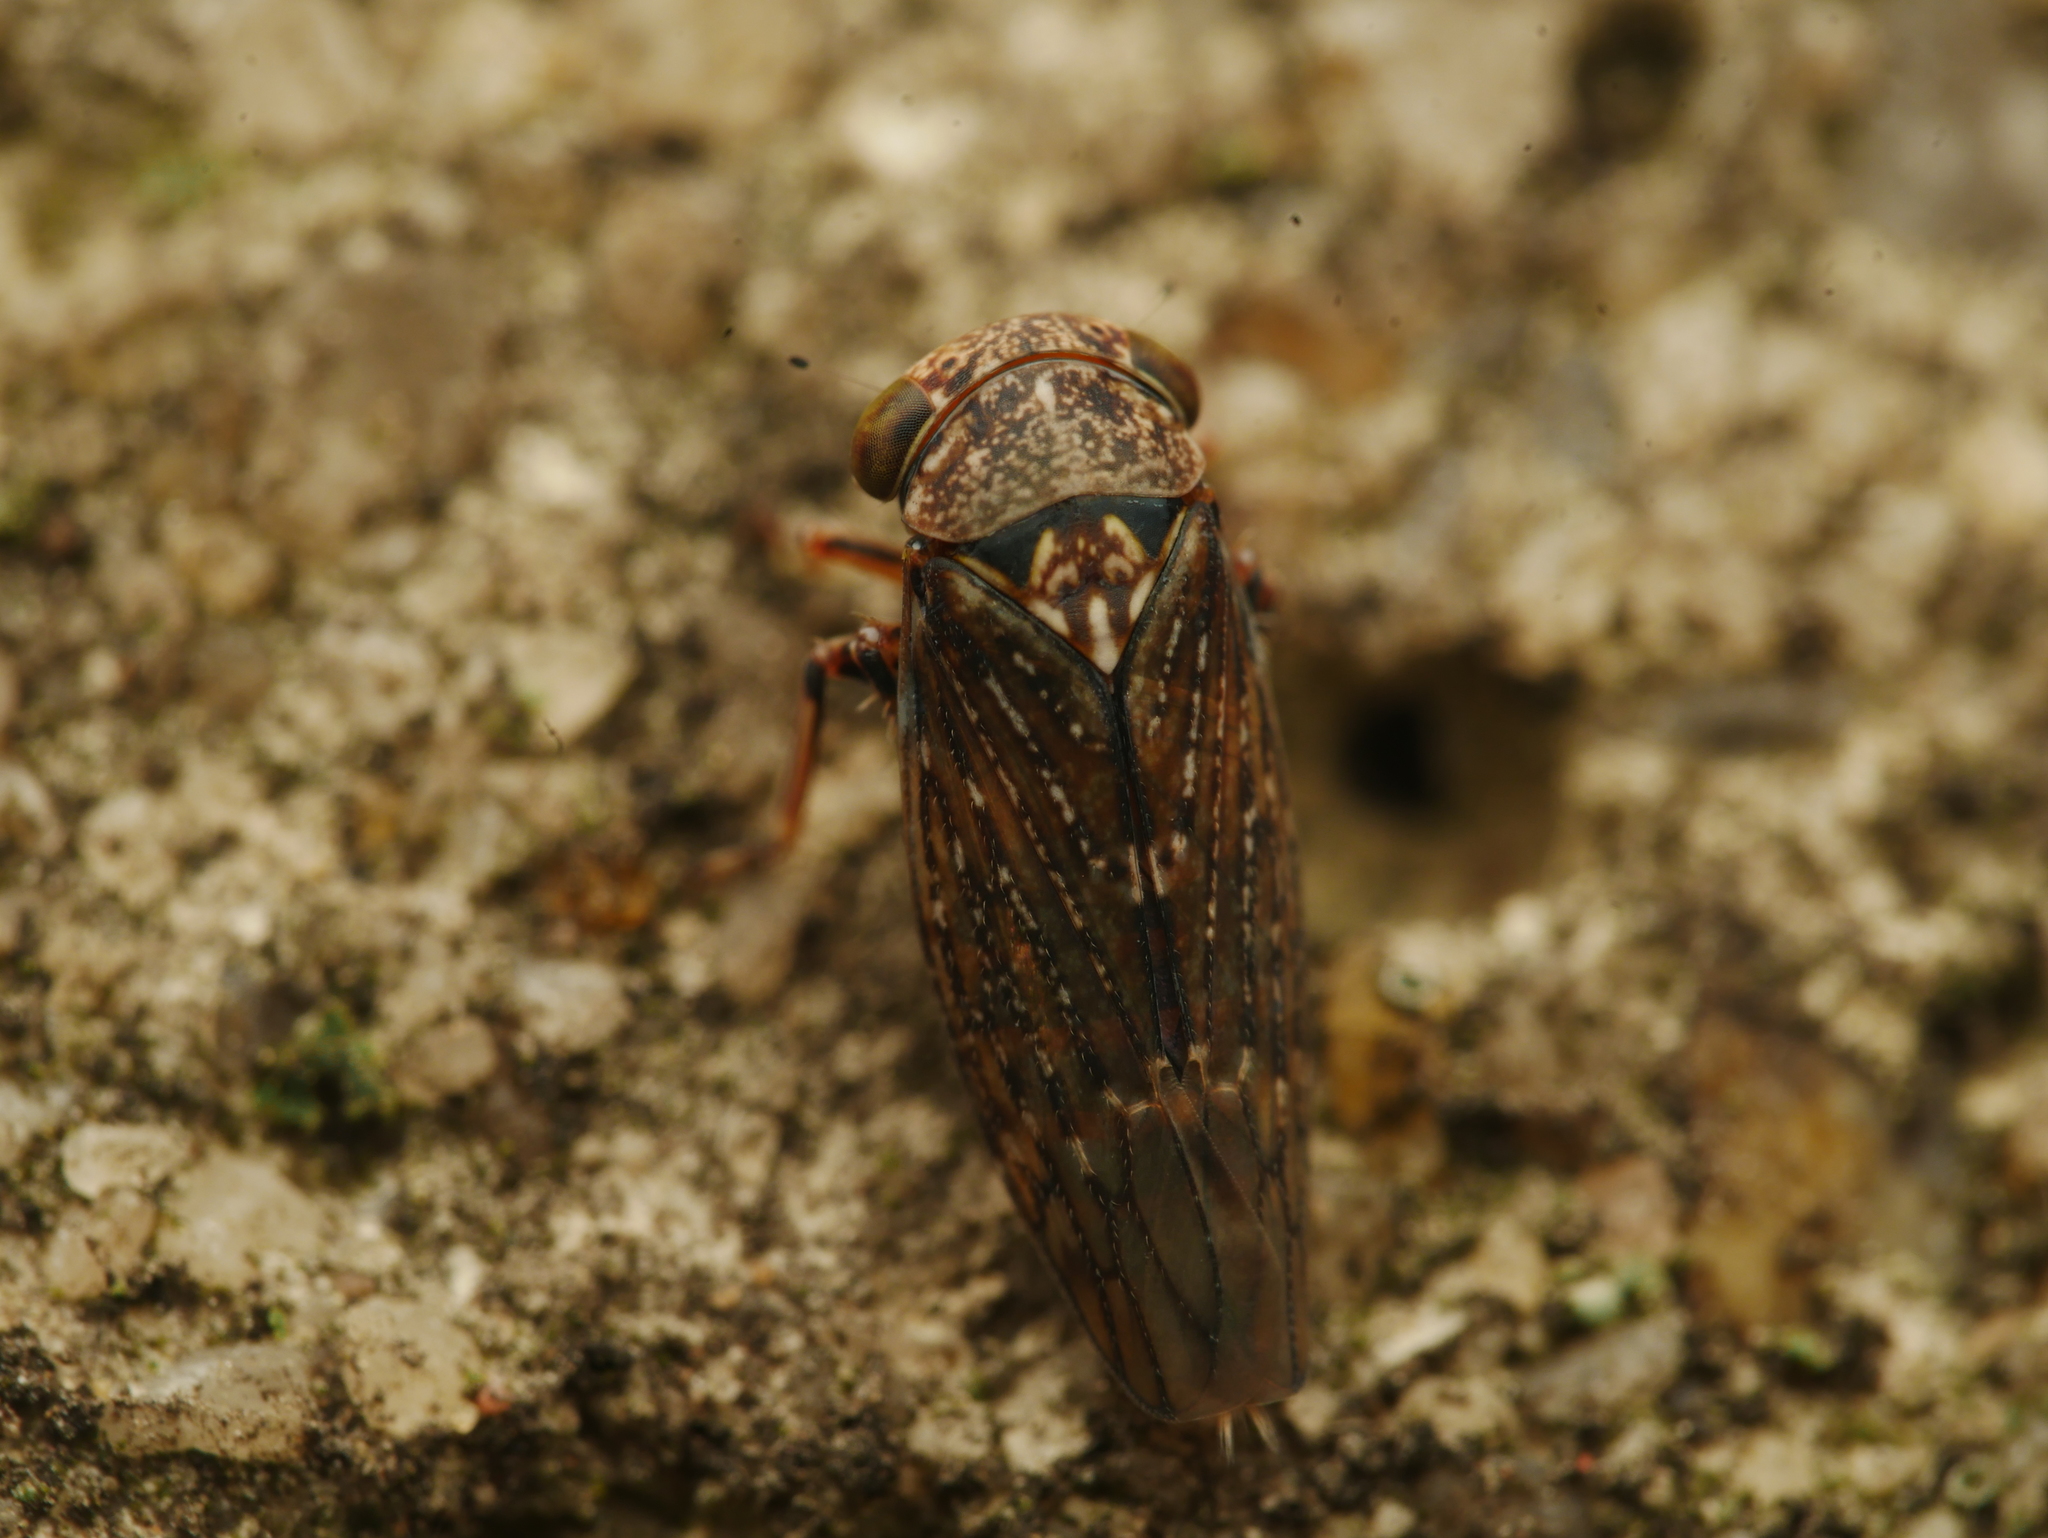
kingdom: Animalia
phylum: Arthropoda
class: Insecta
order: Hemiptera
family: Cicadellidae
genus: Acericerus
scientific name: Acericerus ribauti
